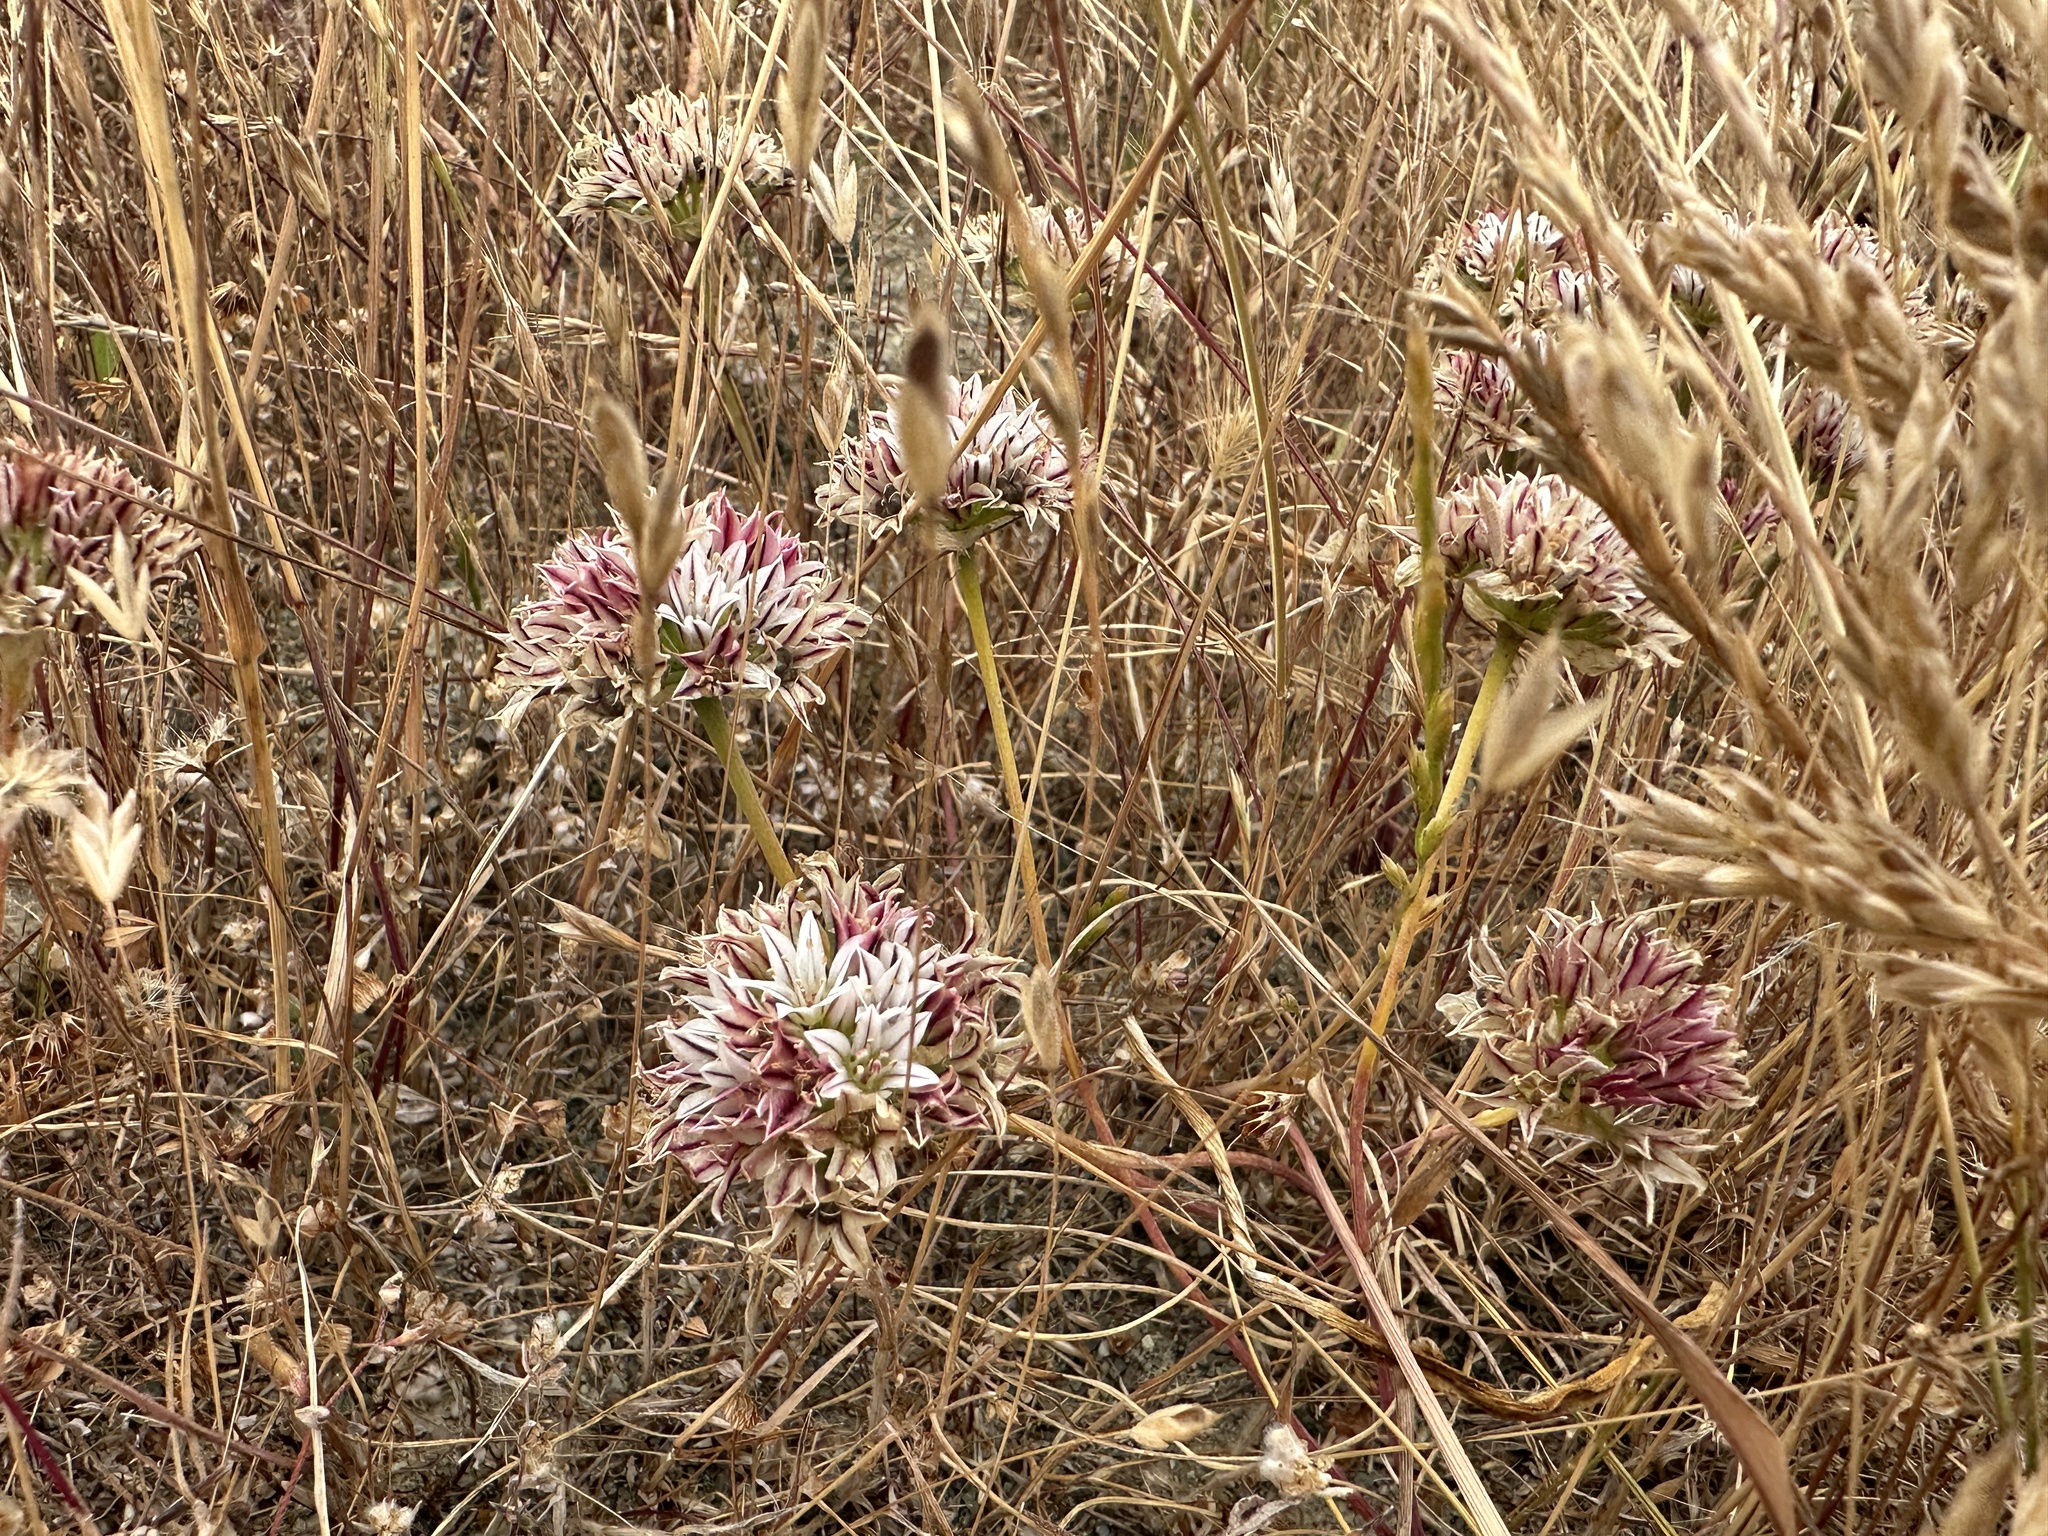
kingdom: Plantae
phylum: Tracheophyta
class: Liliopsida
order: Asparagales
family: Amaryllidaceae
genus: Allium
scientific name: Allium lacunosum
